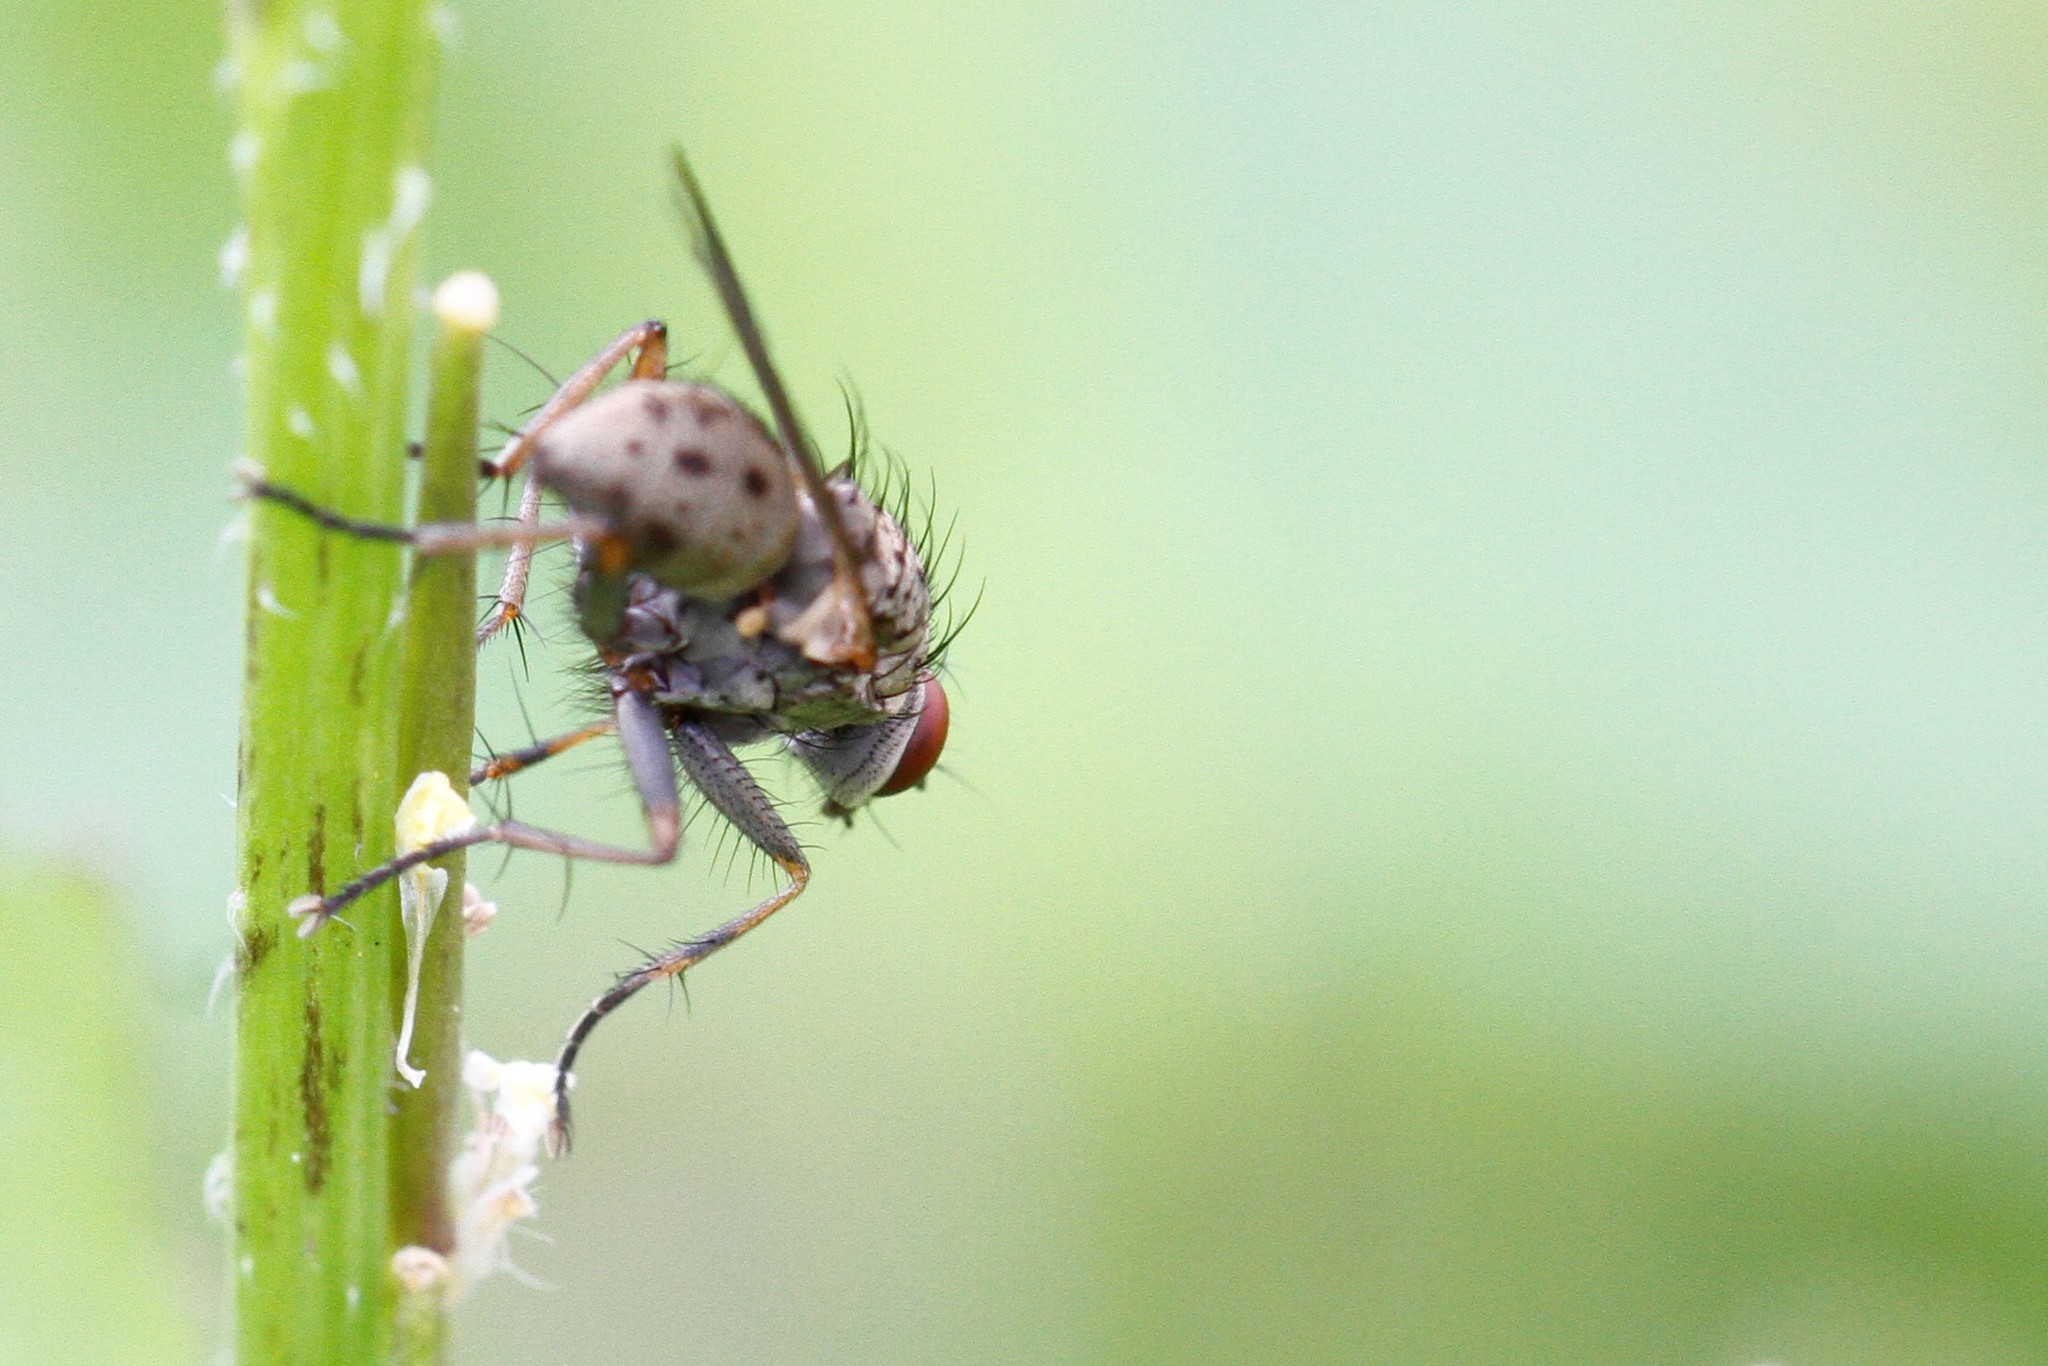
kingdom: Animalia
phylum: Arthropoda
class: Insecta
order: Diptera
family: Muscidae
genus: Coenosia
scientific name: Coenosia tigrina
